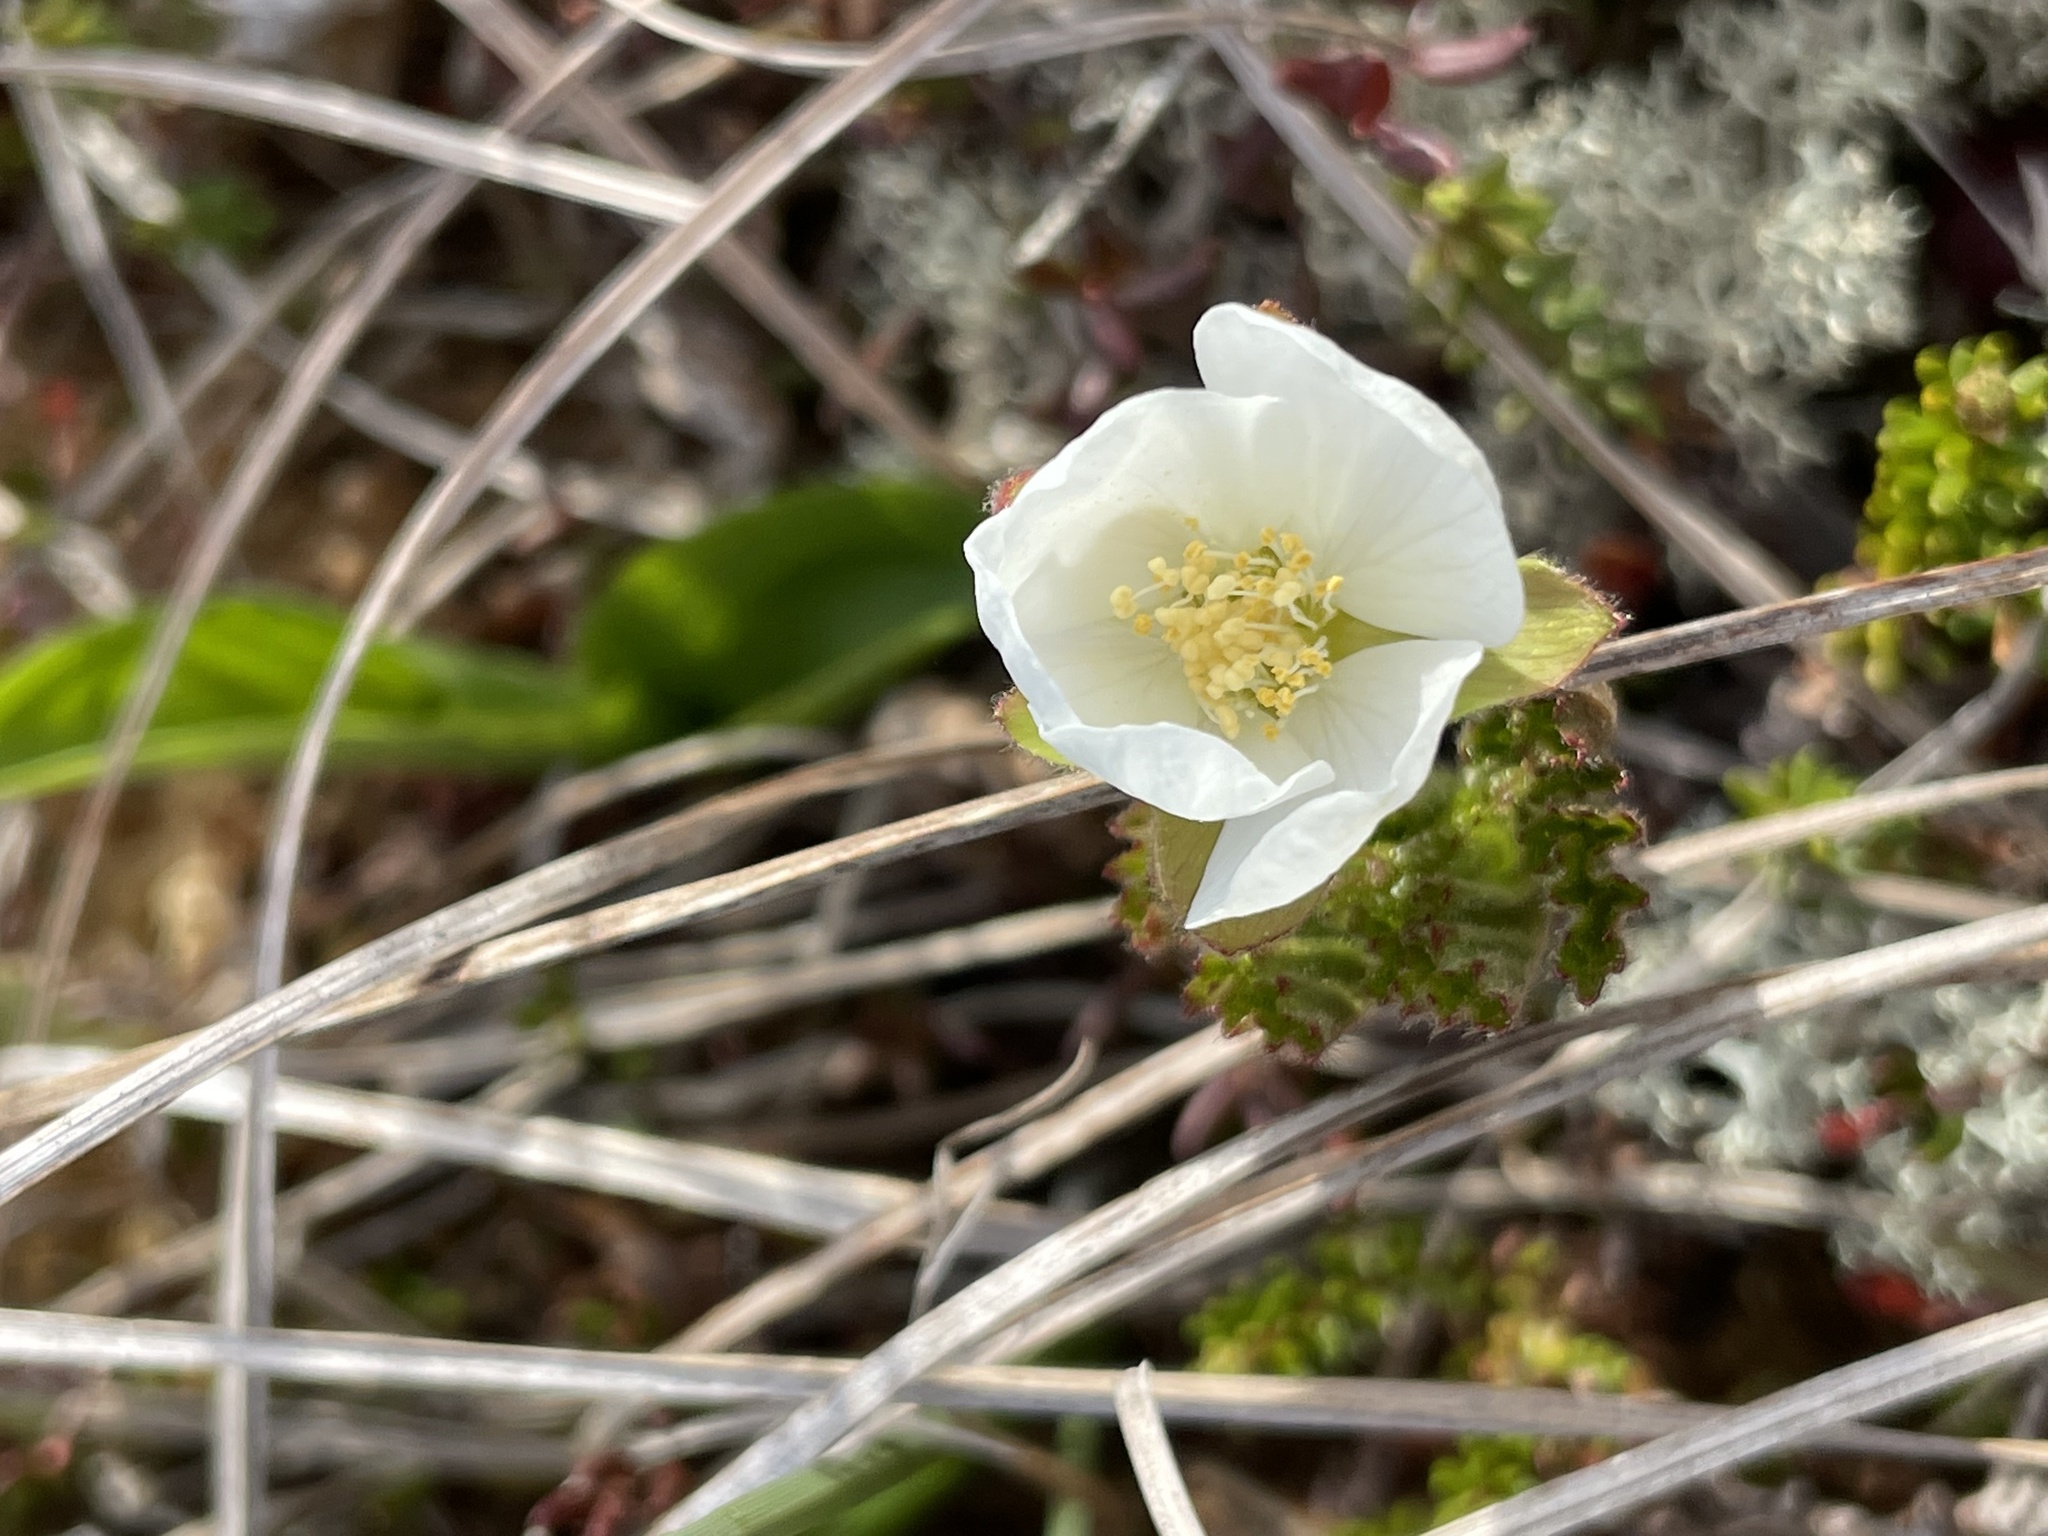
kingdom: Plantae
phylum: Tracheophyta
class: Magnoliopsida
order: Rosales
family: Rosaceae
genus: Rubus
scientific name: Rubus chamaemorus
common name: Cloudberry
